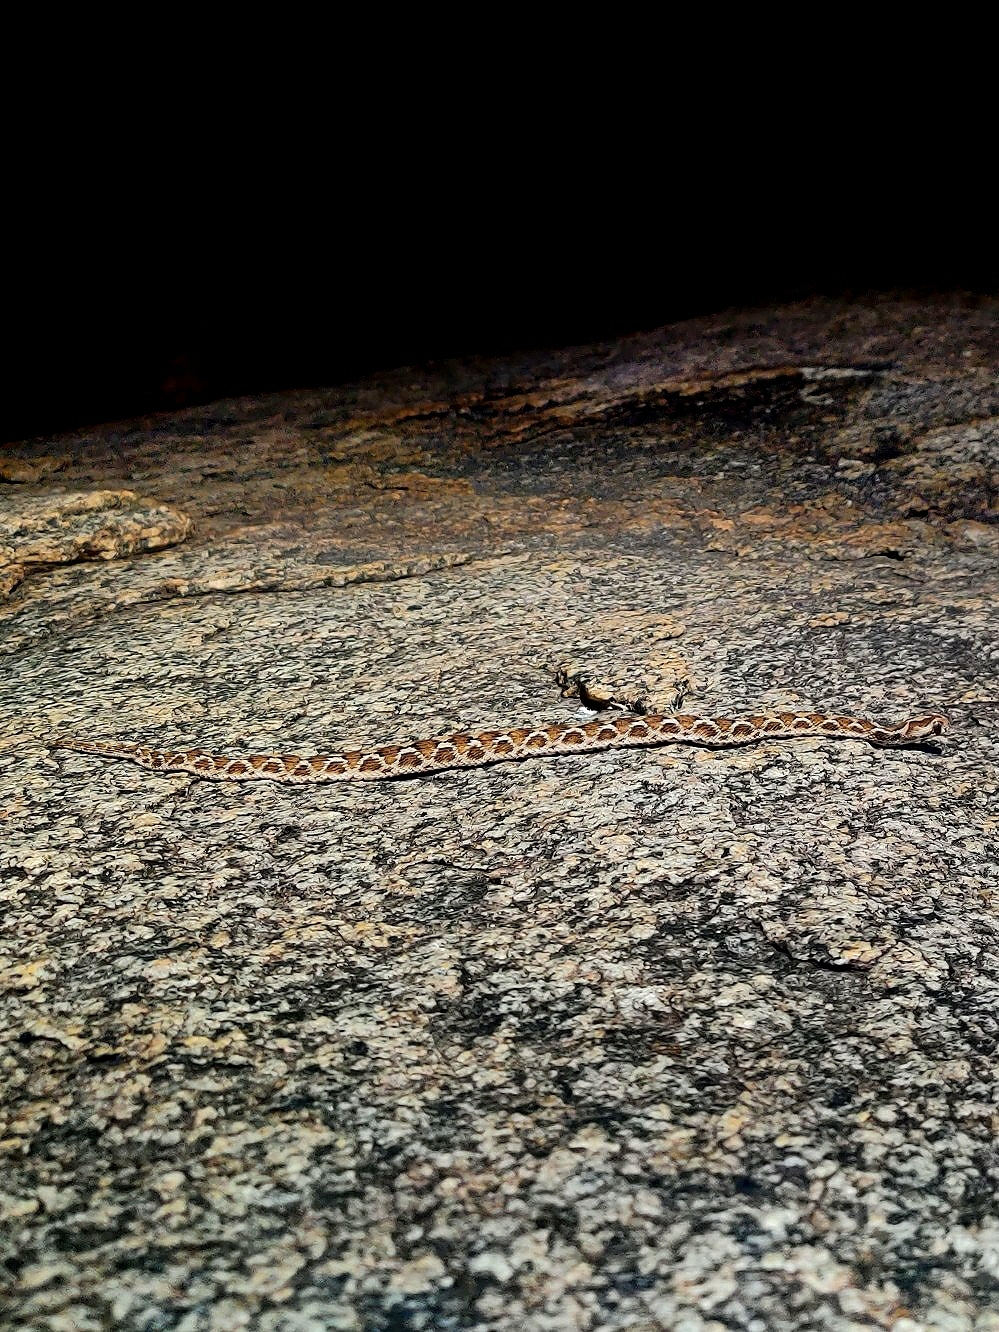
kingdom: Animalia
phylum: Chordata
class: Squamata
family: Viperidae
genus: Echis
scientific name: Echis carinatus
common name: Saw-scaled viper
